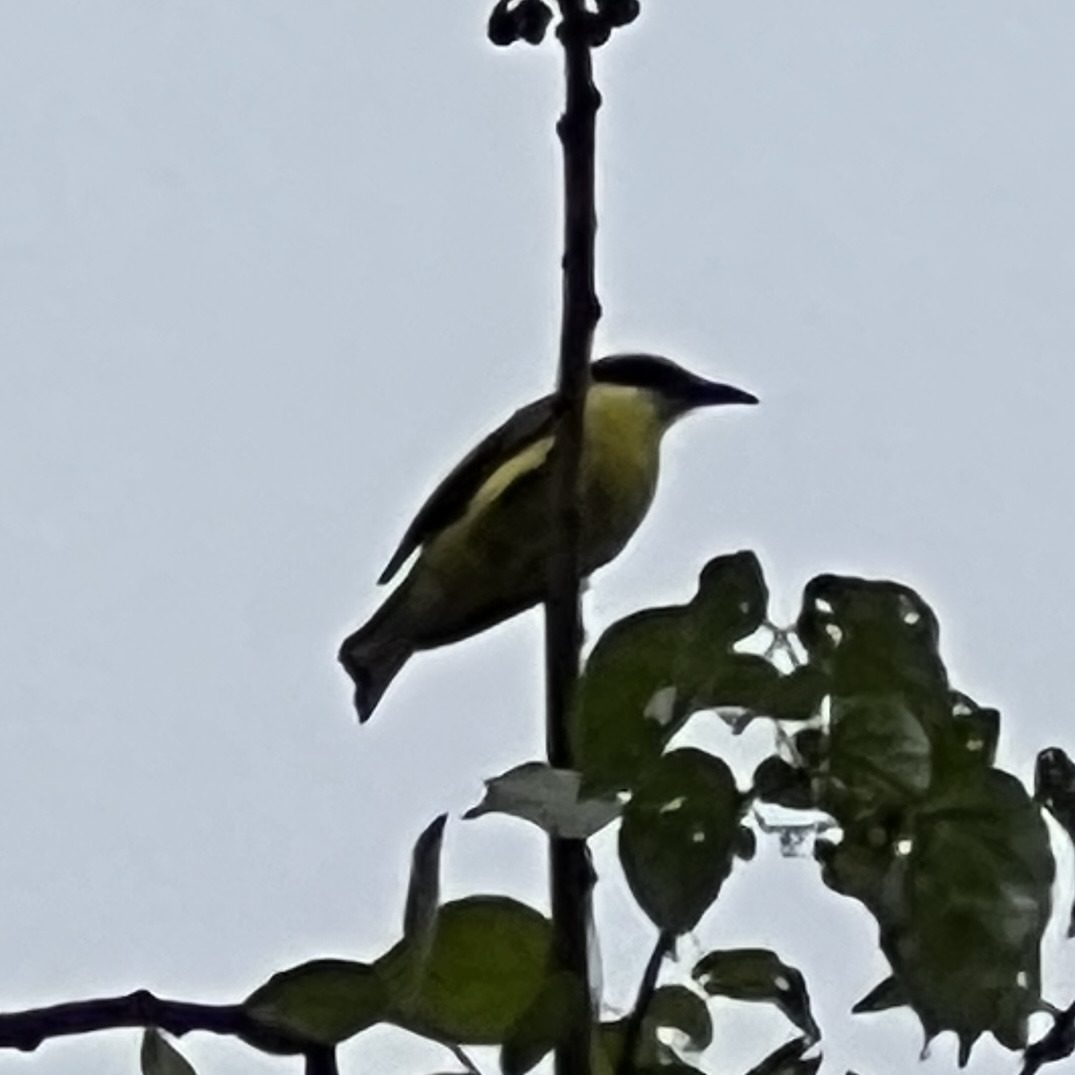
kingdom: Animalia
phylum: Chordata
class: Aves
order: Passeriformes
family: Tyrannidae
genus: Megarynchus
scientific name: Megarynchus pitangua
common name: Boat-billed flycatcher
